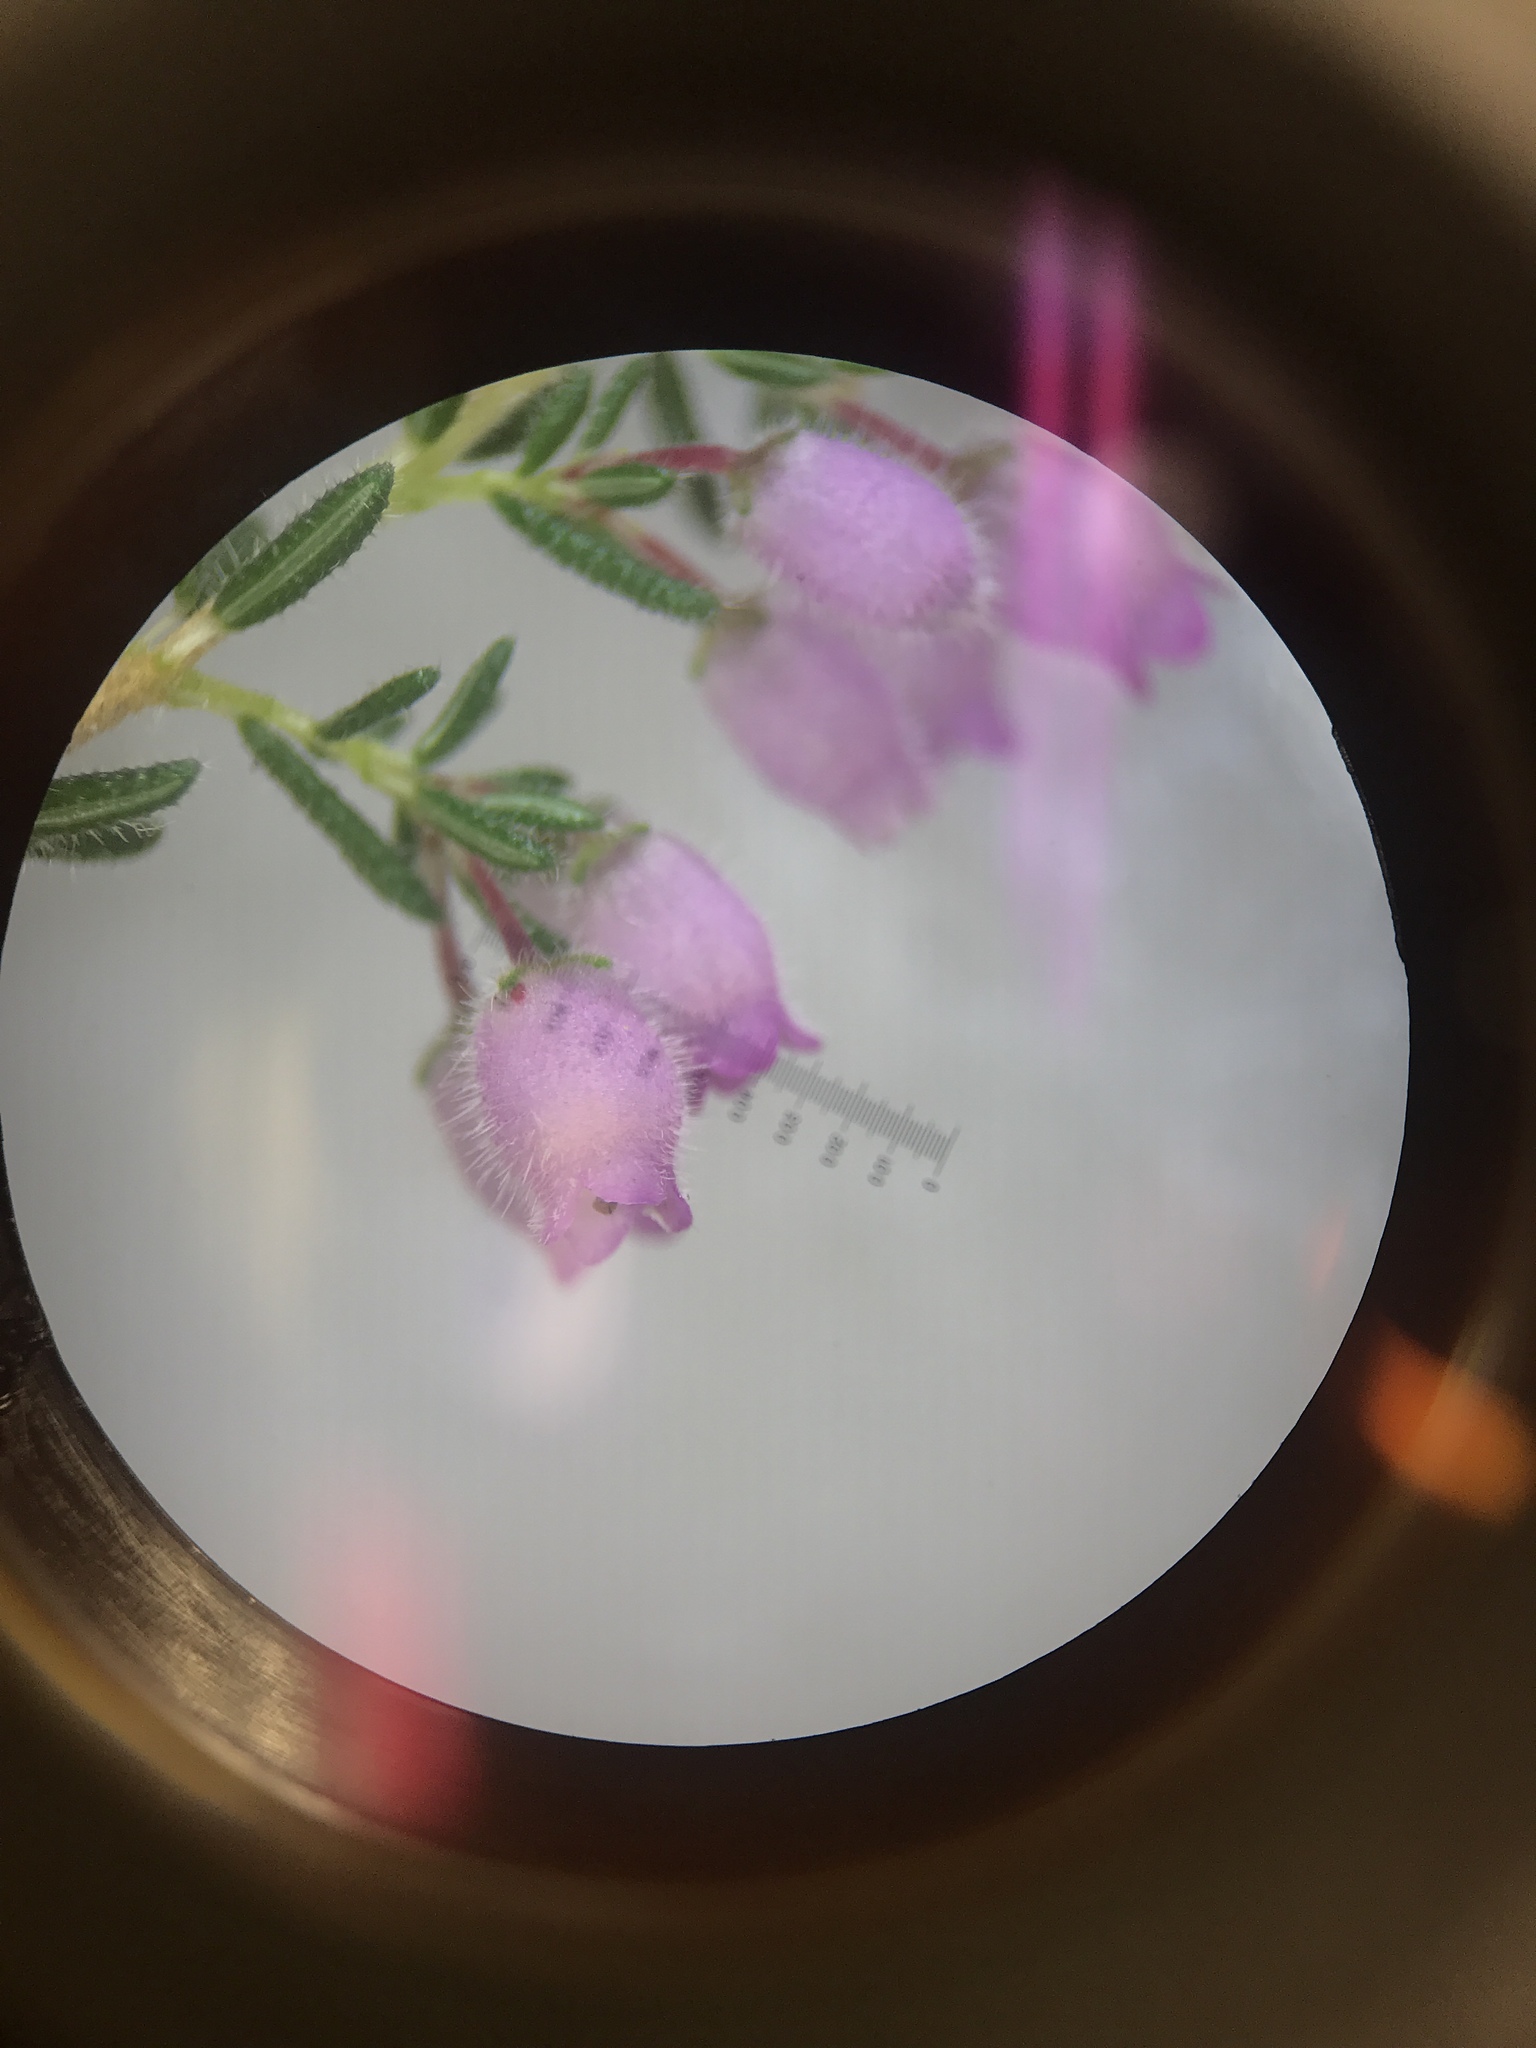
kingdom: Plantae
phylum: Tracheophyta
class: Magnoliopsida
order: Ericales
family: Ericaceae
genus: Erica
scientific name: Erica hirtiflora
